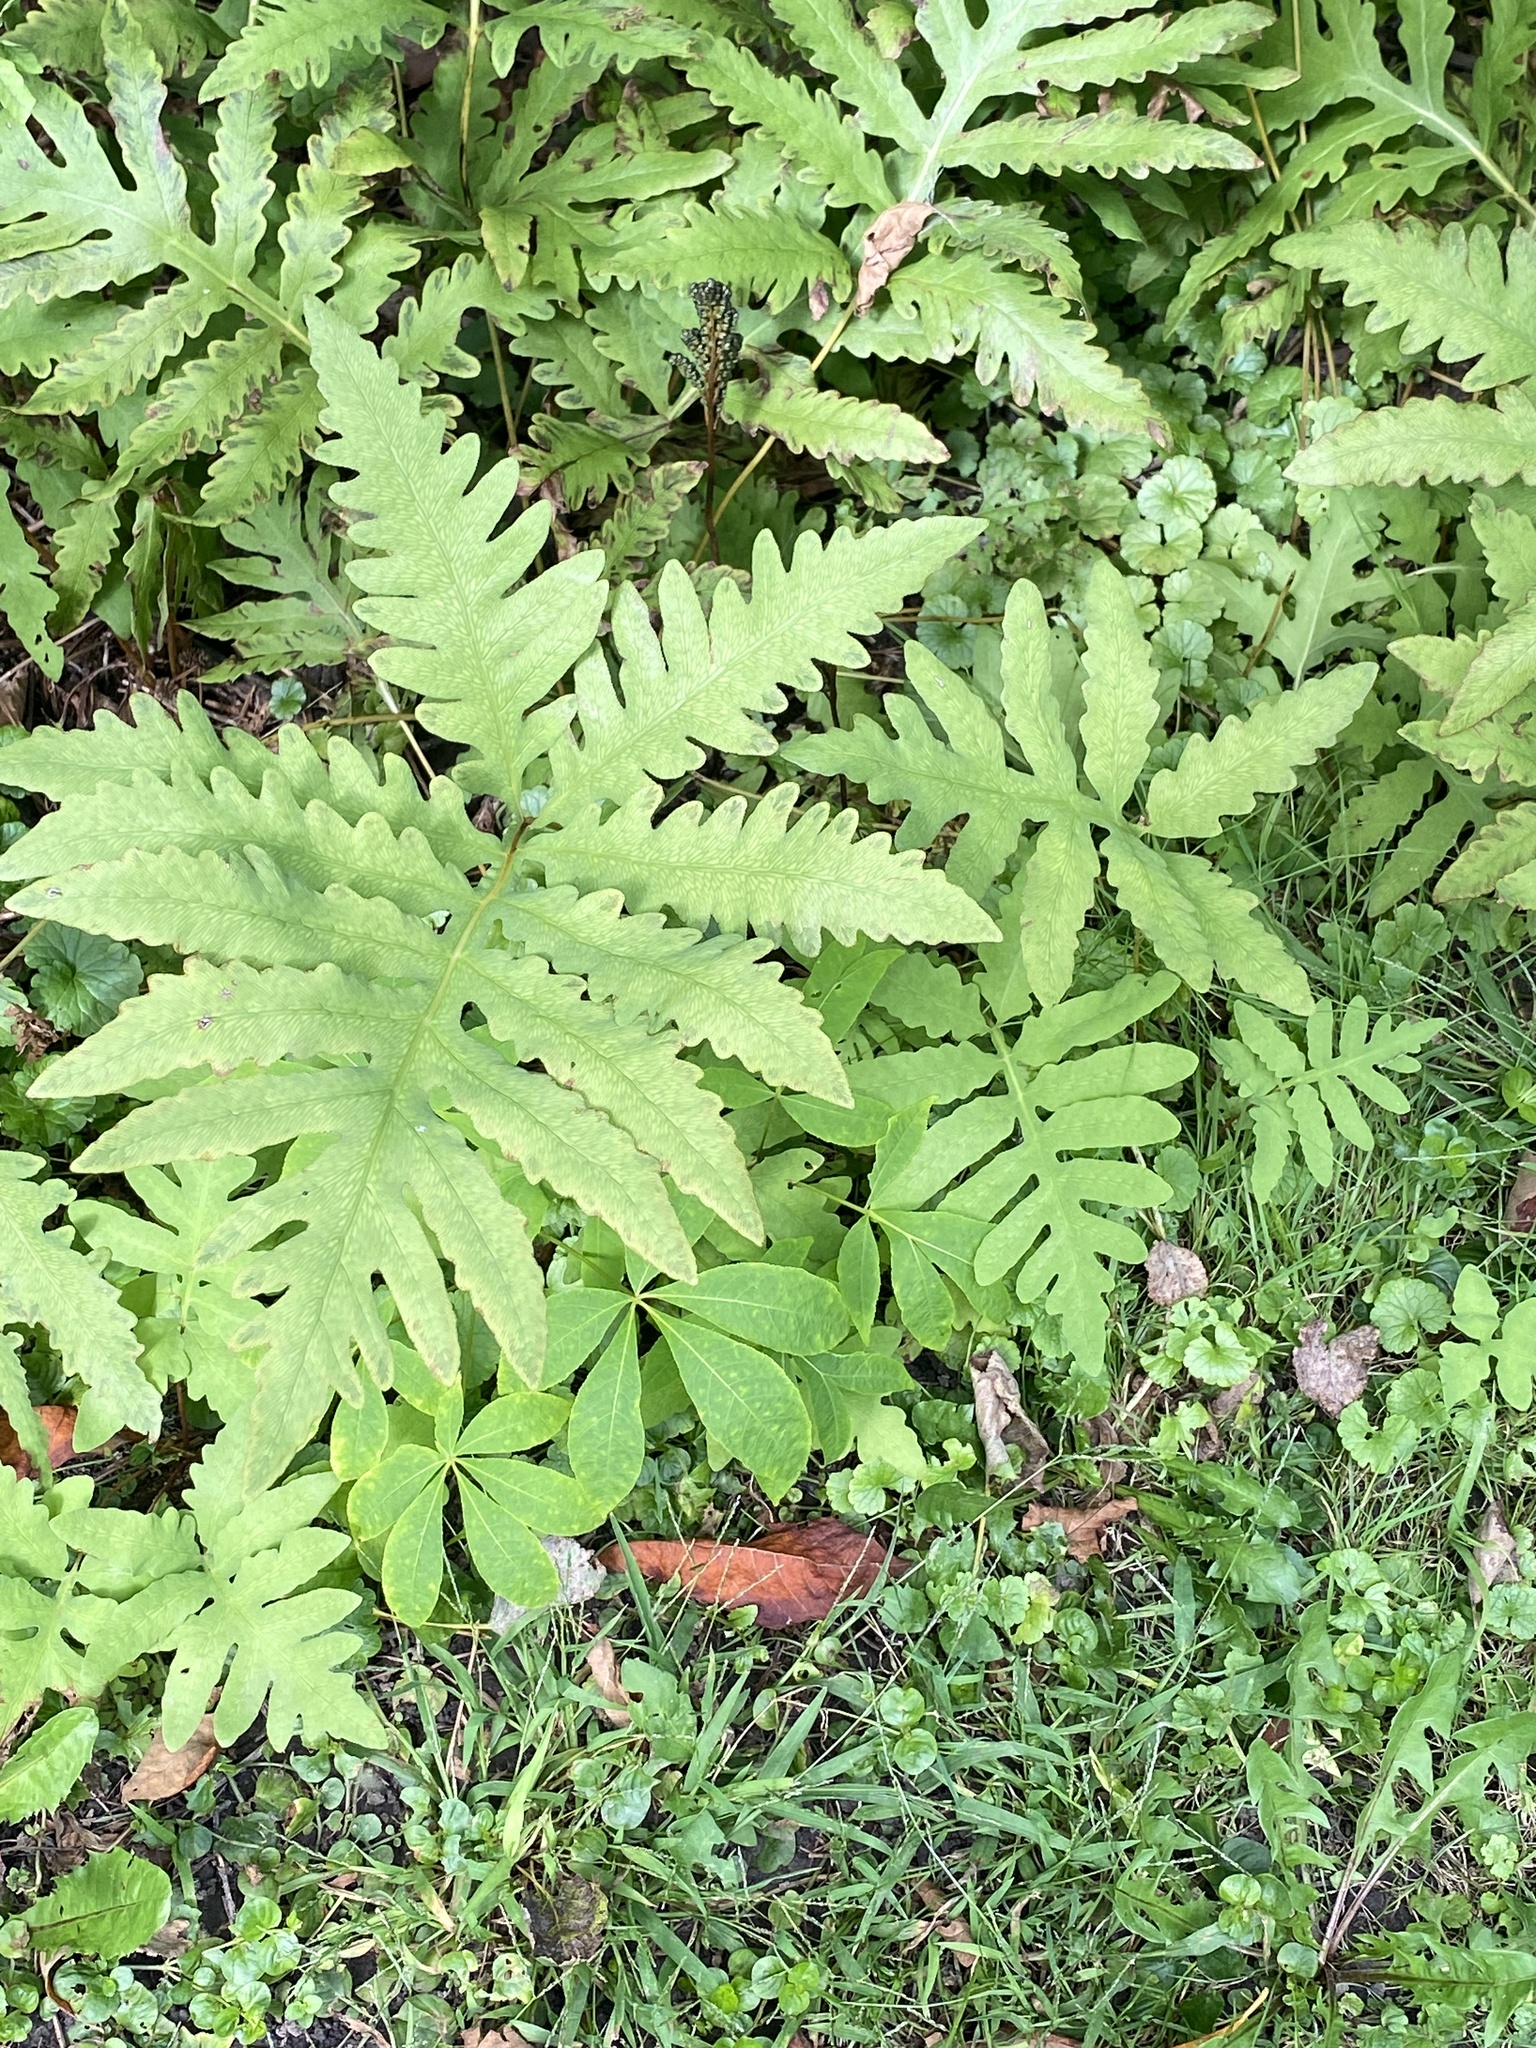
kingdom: Plantae
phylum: Tracheophyta
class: Polypodiopsida
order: Polypodiales
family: Onocleaceae
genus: Onoclea
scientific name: Onoclea sensibilis
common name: Sensitive fern
